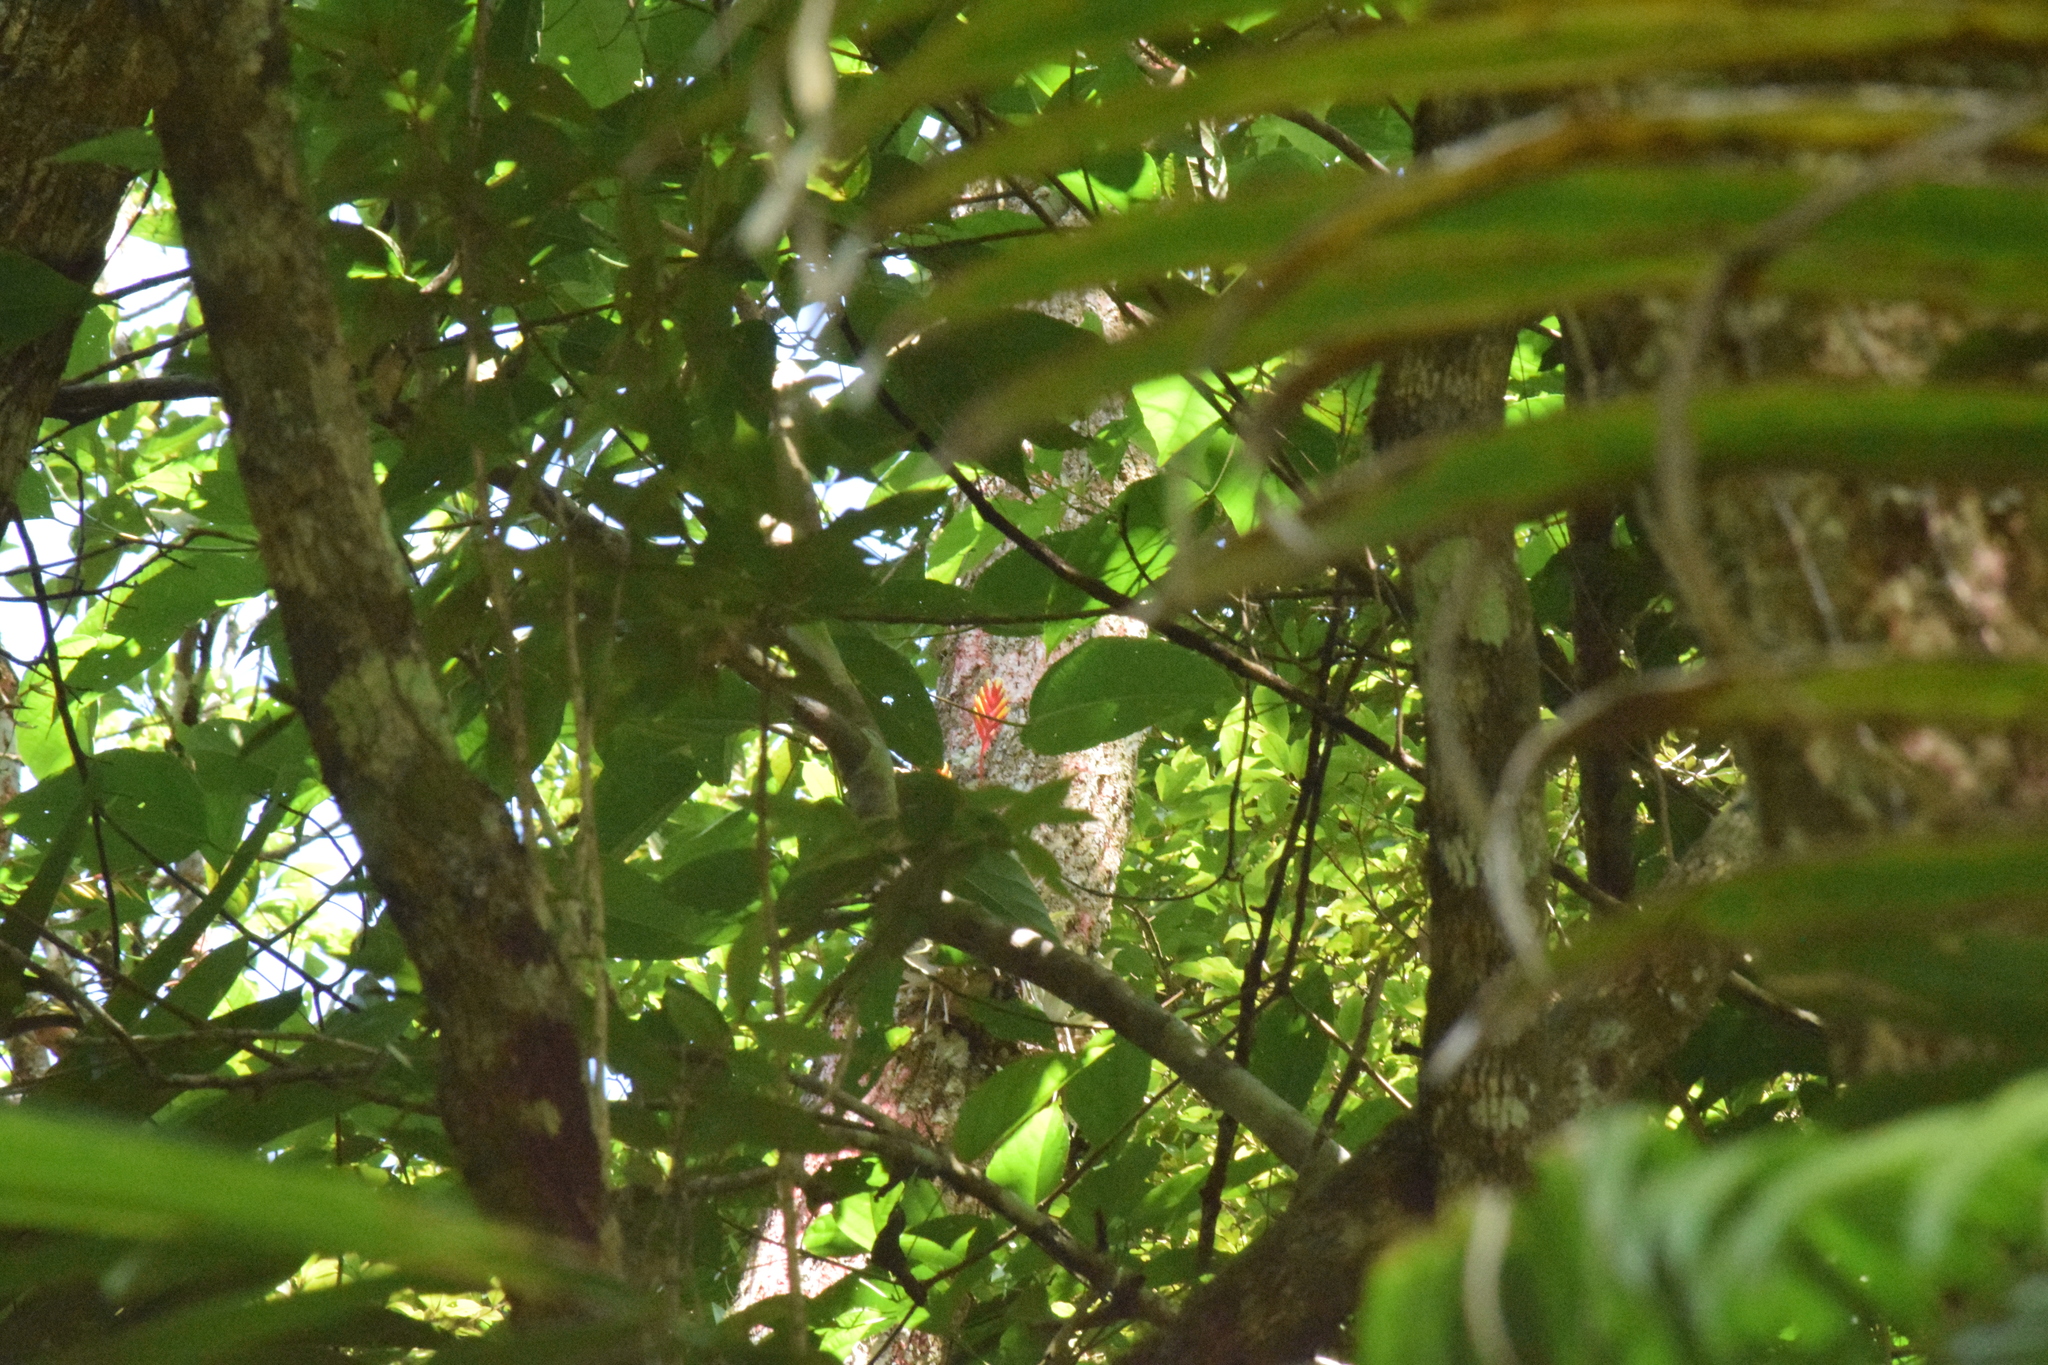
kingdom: Plantae
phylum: Tracheophyta
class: Liliopsida
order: Poales
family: Bromeliaceae
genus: Vriesea
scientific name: Vriesea carinata
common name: Lobster-claws
